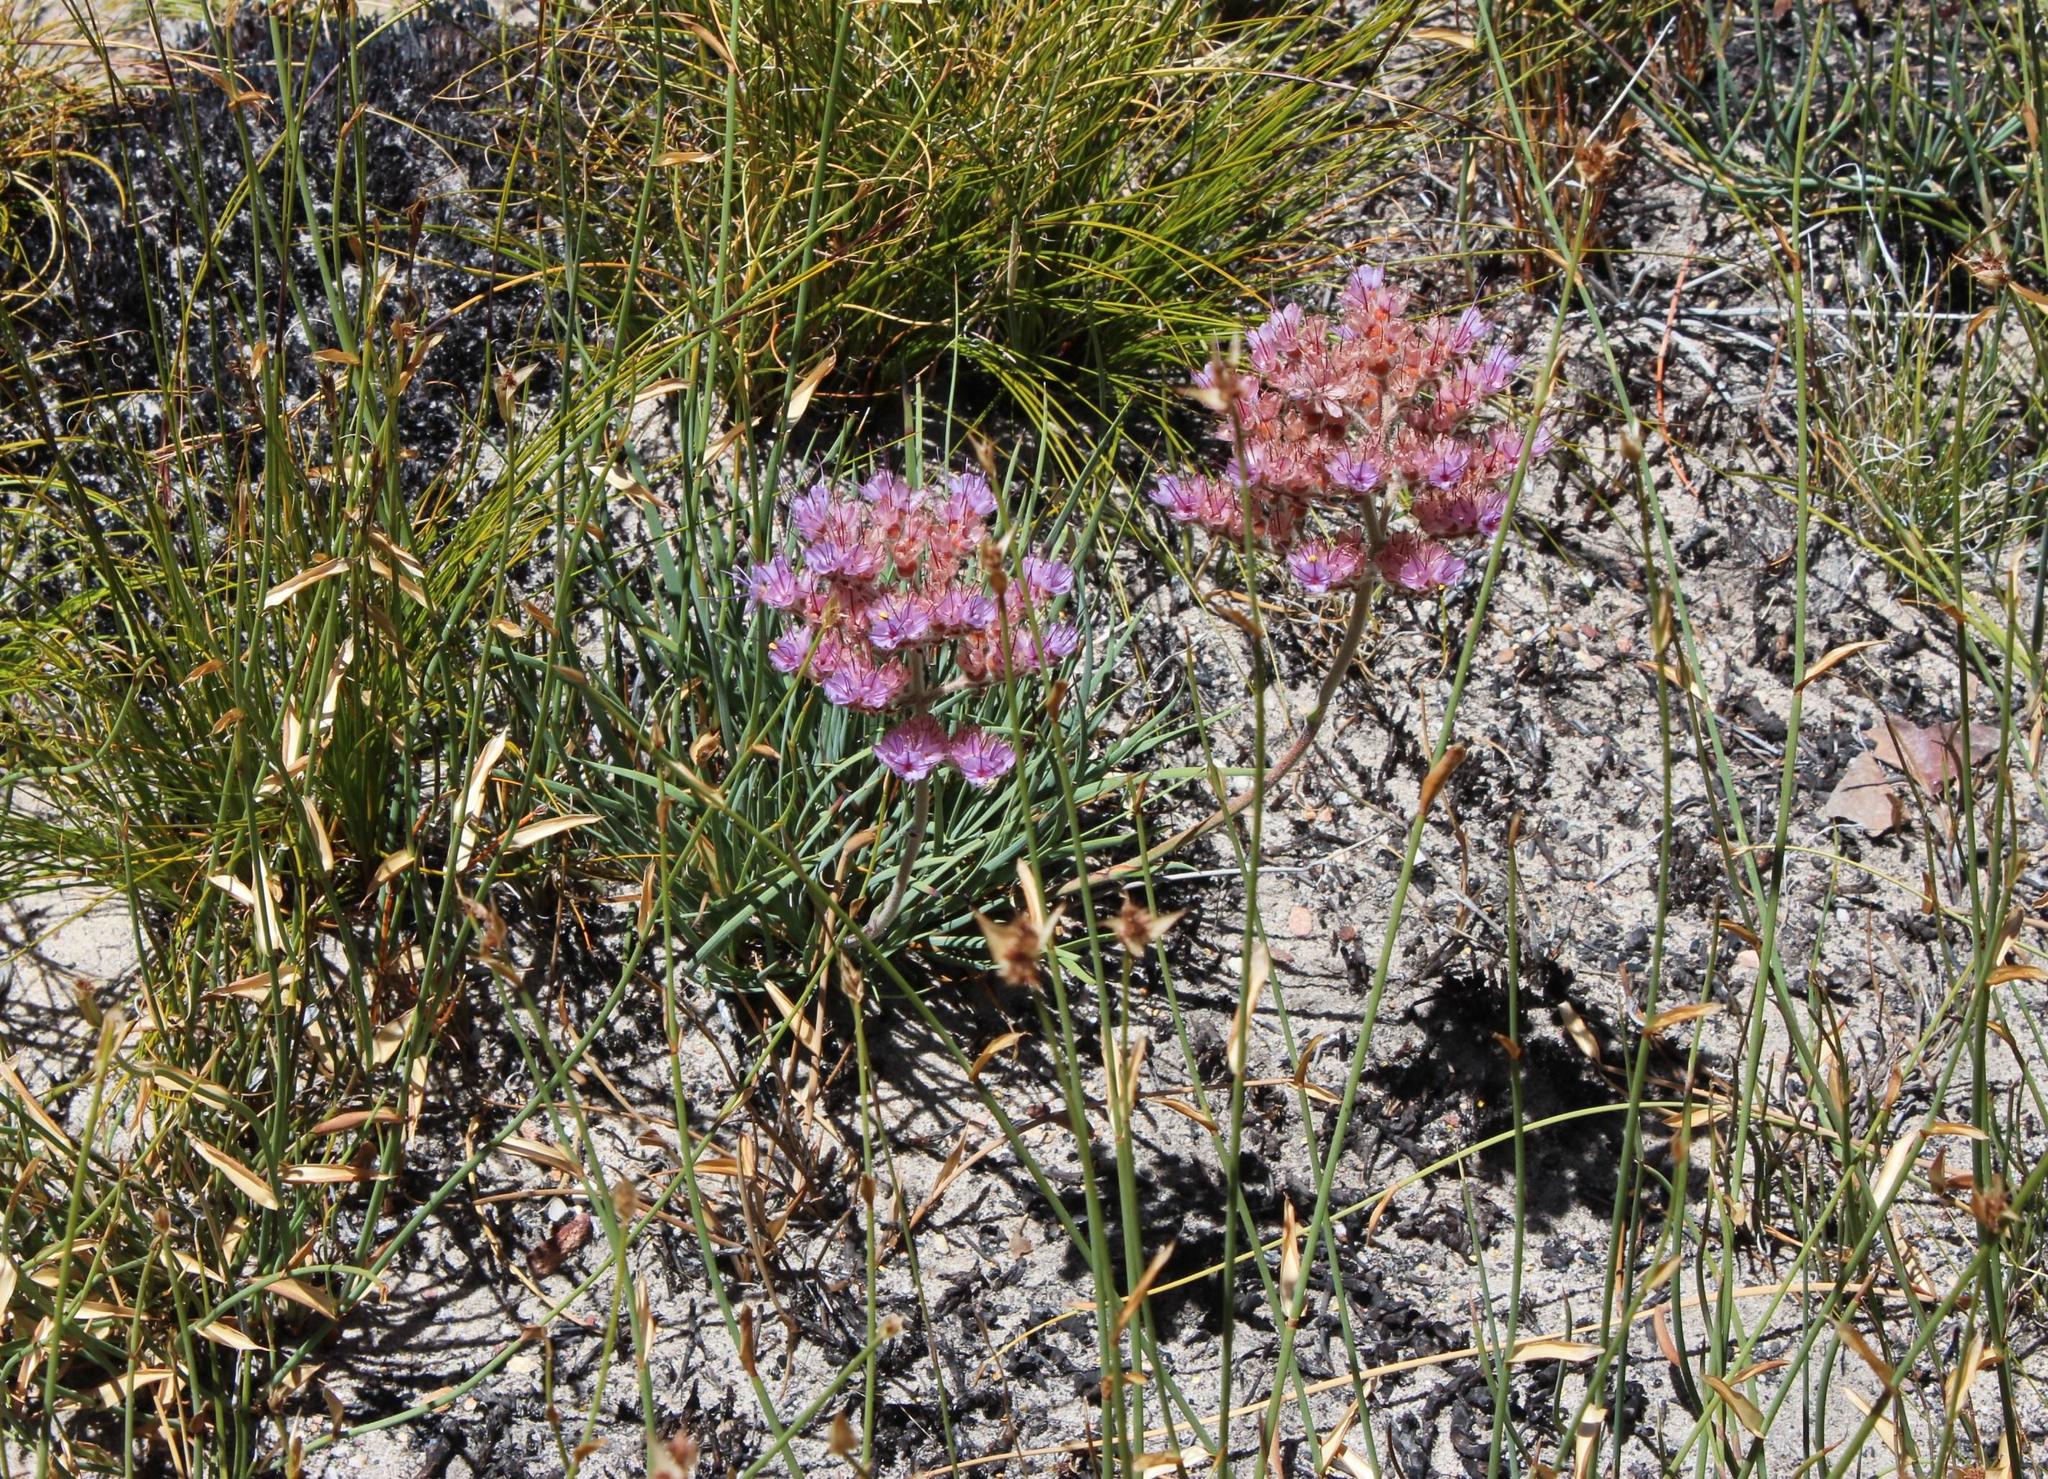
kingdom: Plantae
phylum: Tracheophyta
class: Liliopsida
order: Commelinales
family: Haemodoraceae
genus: Dilatris
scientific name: Dilatris ixioides
